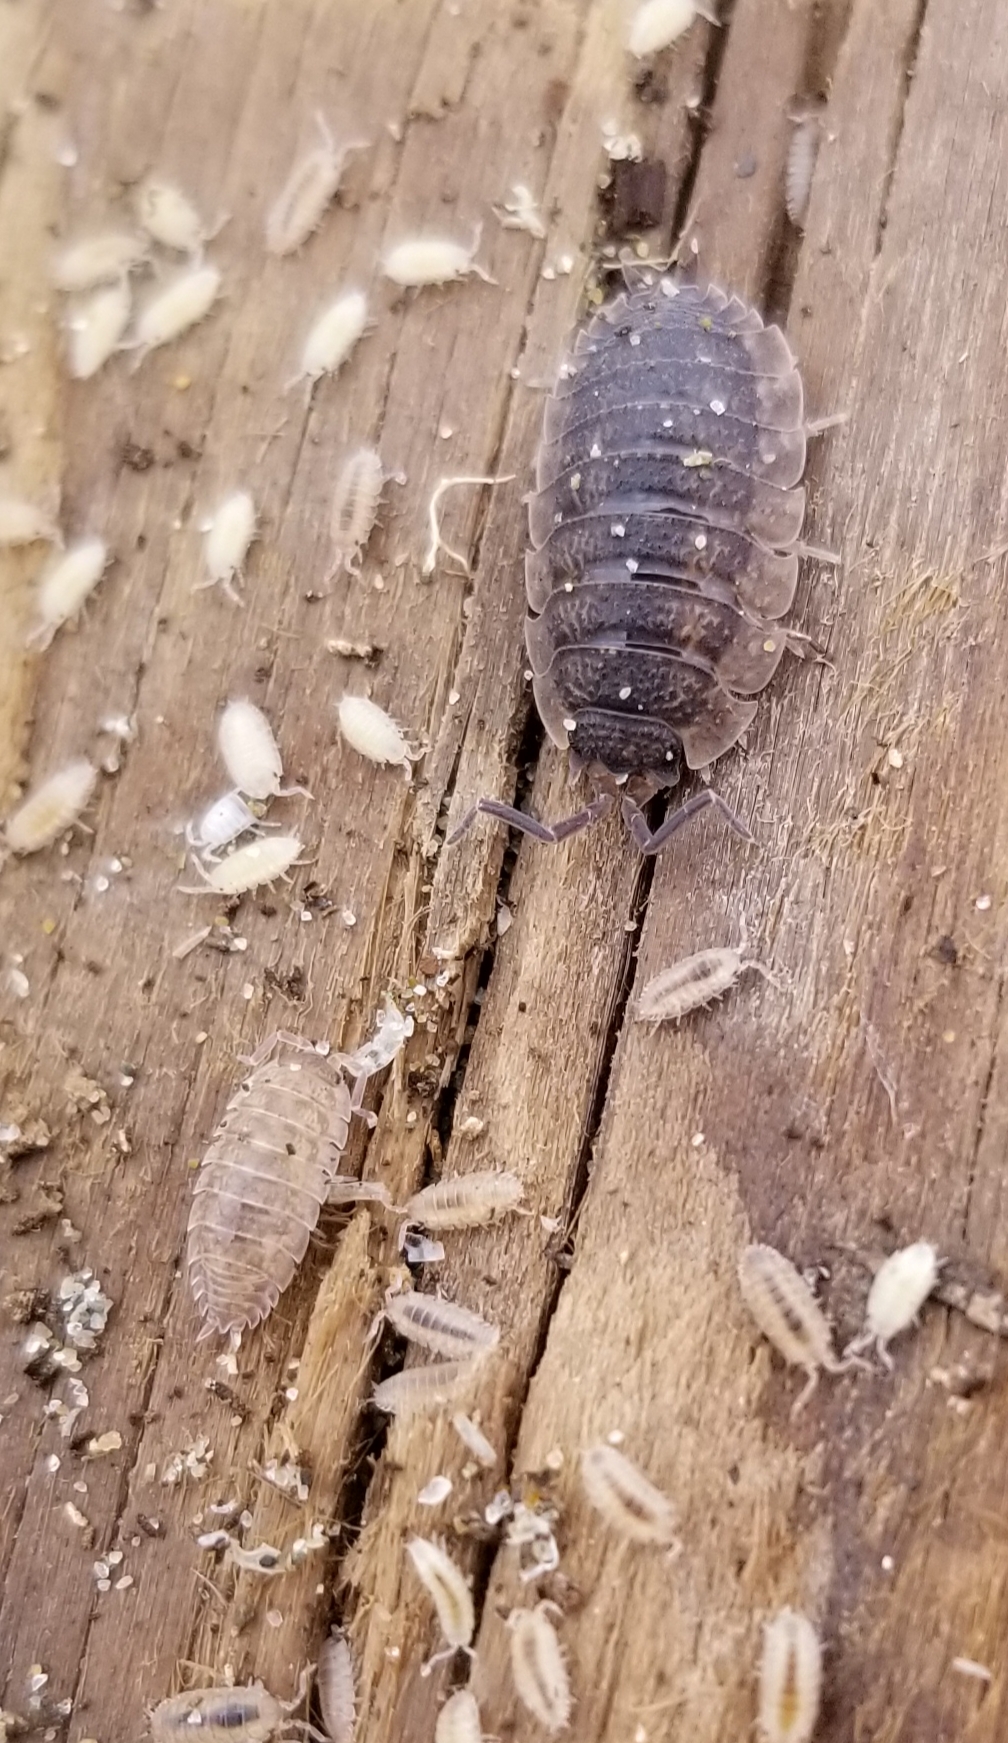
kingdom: Animalia
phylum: Arthropoda
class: Malacostraca
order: Isopoda
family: Porcellionidae
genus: Porcellio
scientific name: Porcellio scaber
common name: Common rough woodlouse
